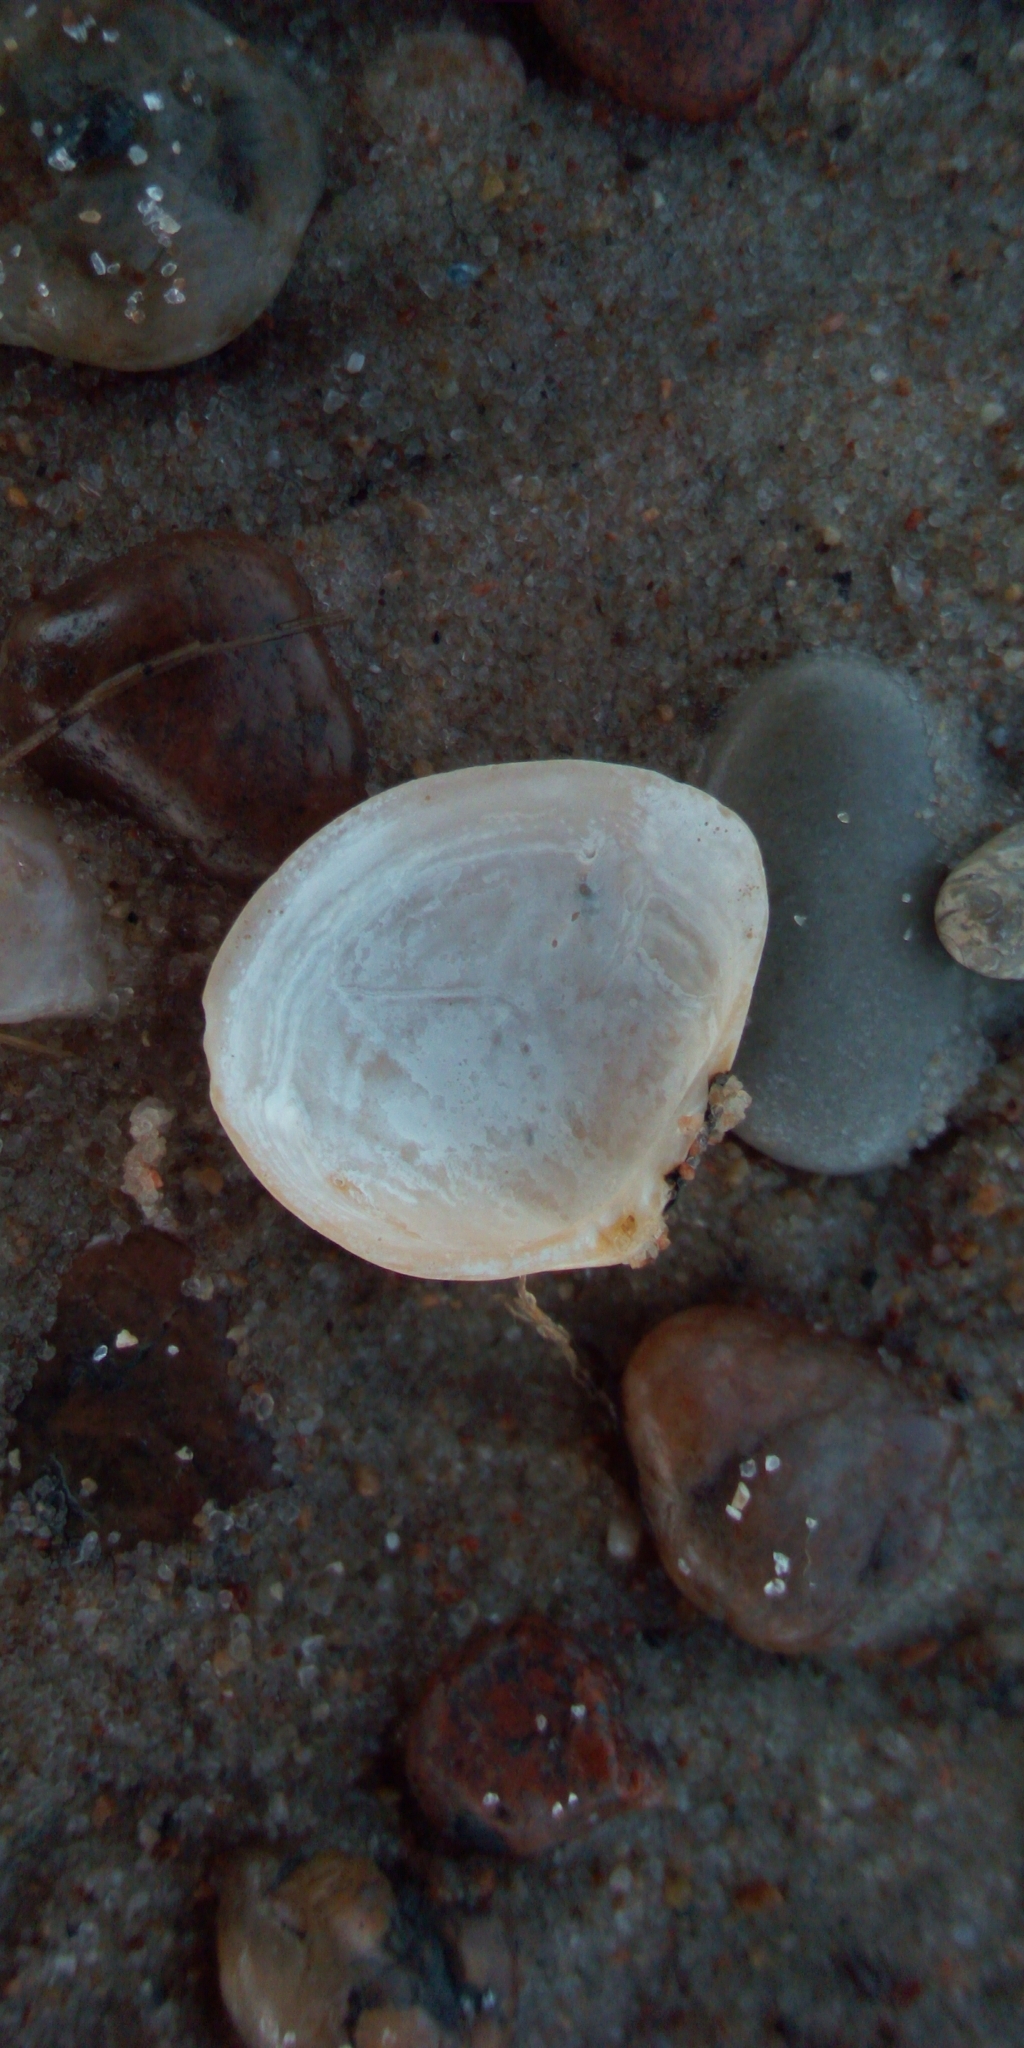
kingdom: Animalia
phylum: Mollusca
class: Bivalvia
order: Cardiida
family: Tellinidae
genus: Macoma
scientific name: Macoma balthica
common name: Baltic tellin
